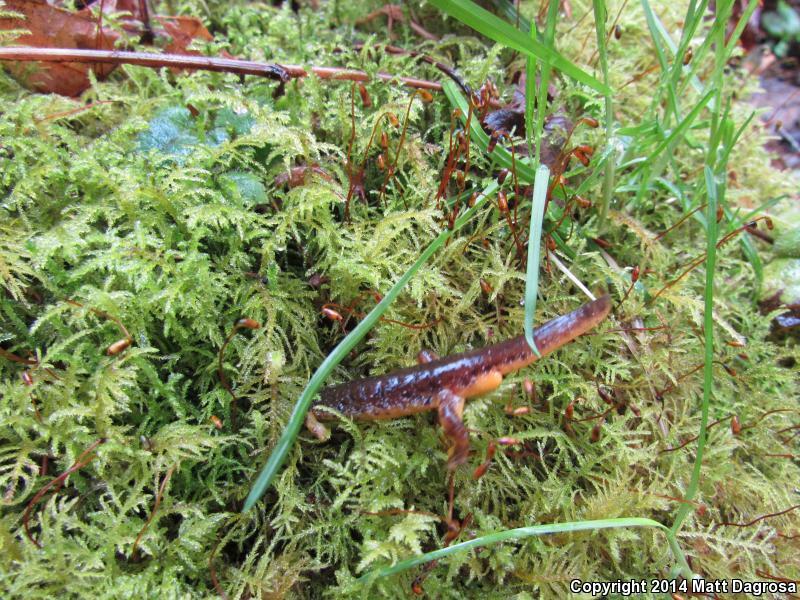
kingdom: Animalia
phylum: Chordata
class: Amphibia
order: Caudata
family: Rhyacotritonidae
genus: Rhyacotriton
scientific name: Rhyacotriton kezeri
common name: Columbia torrent salamander
